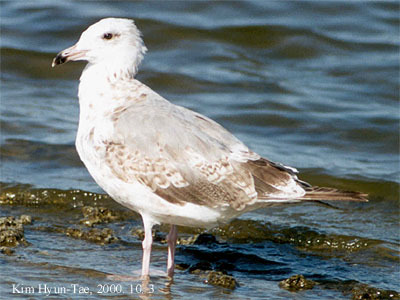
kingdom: Animalia
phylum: Chordata
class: Aves
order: Charadriiformes
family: Laridae
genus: Larus
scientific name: Larus vegae
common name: Vega gull
